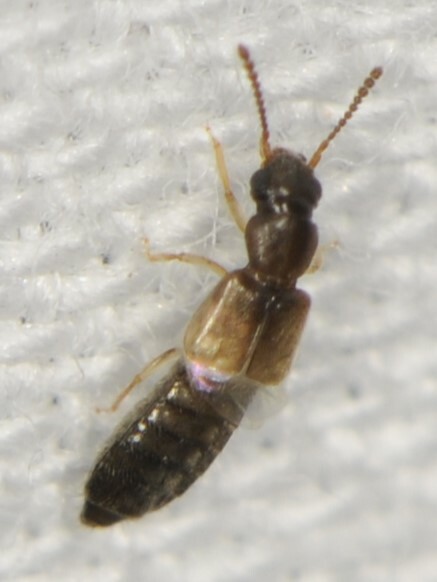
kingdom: Animalia
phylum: Arthropoda
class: Insecta
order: Coleoptera
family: Staphylinidae
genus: Carpelimus
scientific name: Carpelimus
